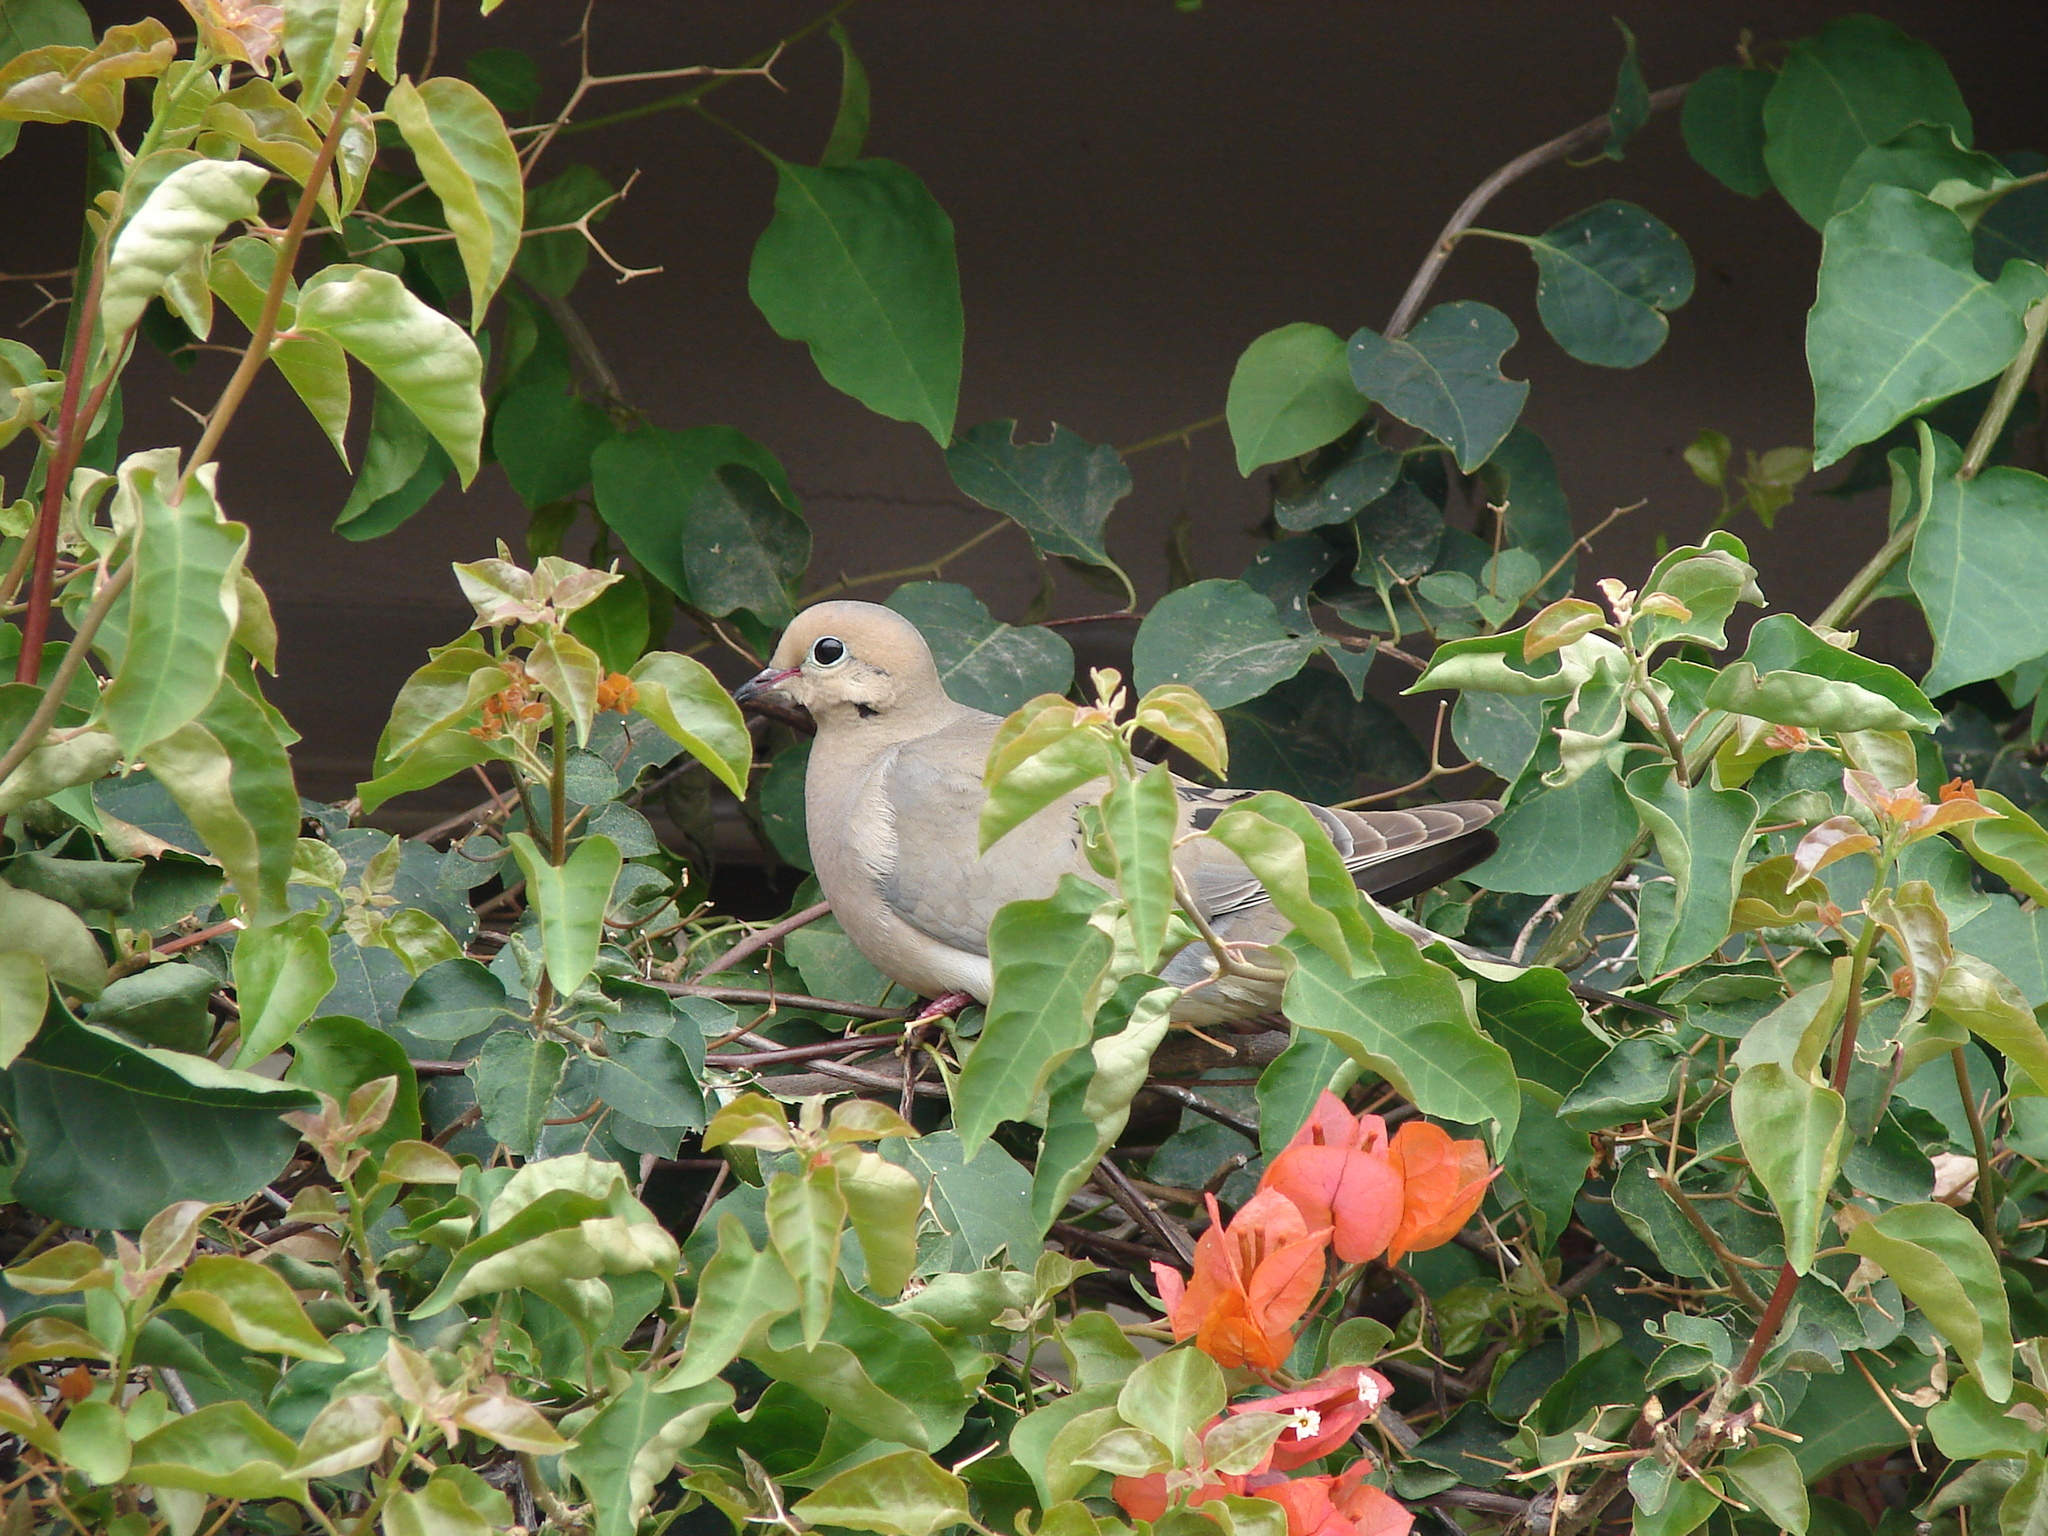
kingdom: Animalia
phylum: Chordata
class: Aves
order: Columbiformes
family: Columbidae
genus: Zenaida
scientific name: Zenaida macroura
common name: Mourning dove
